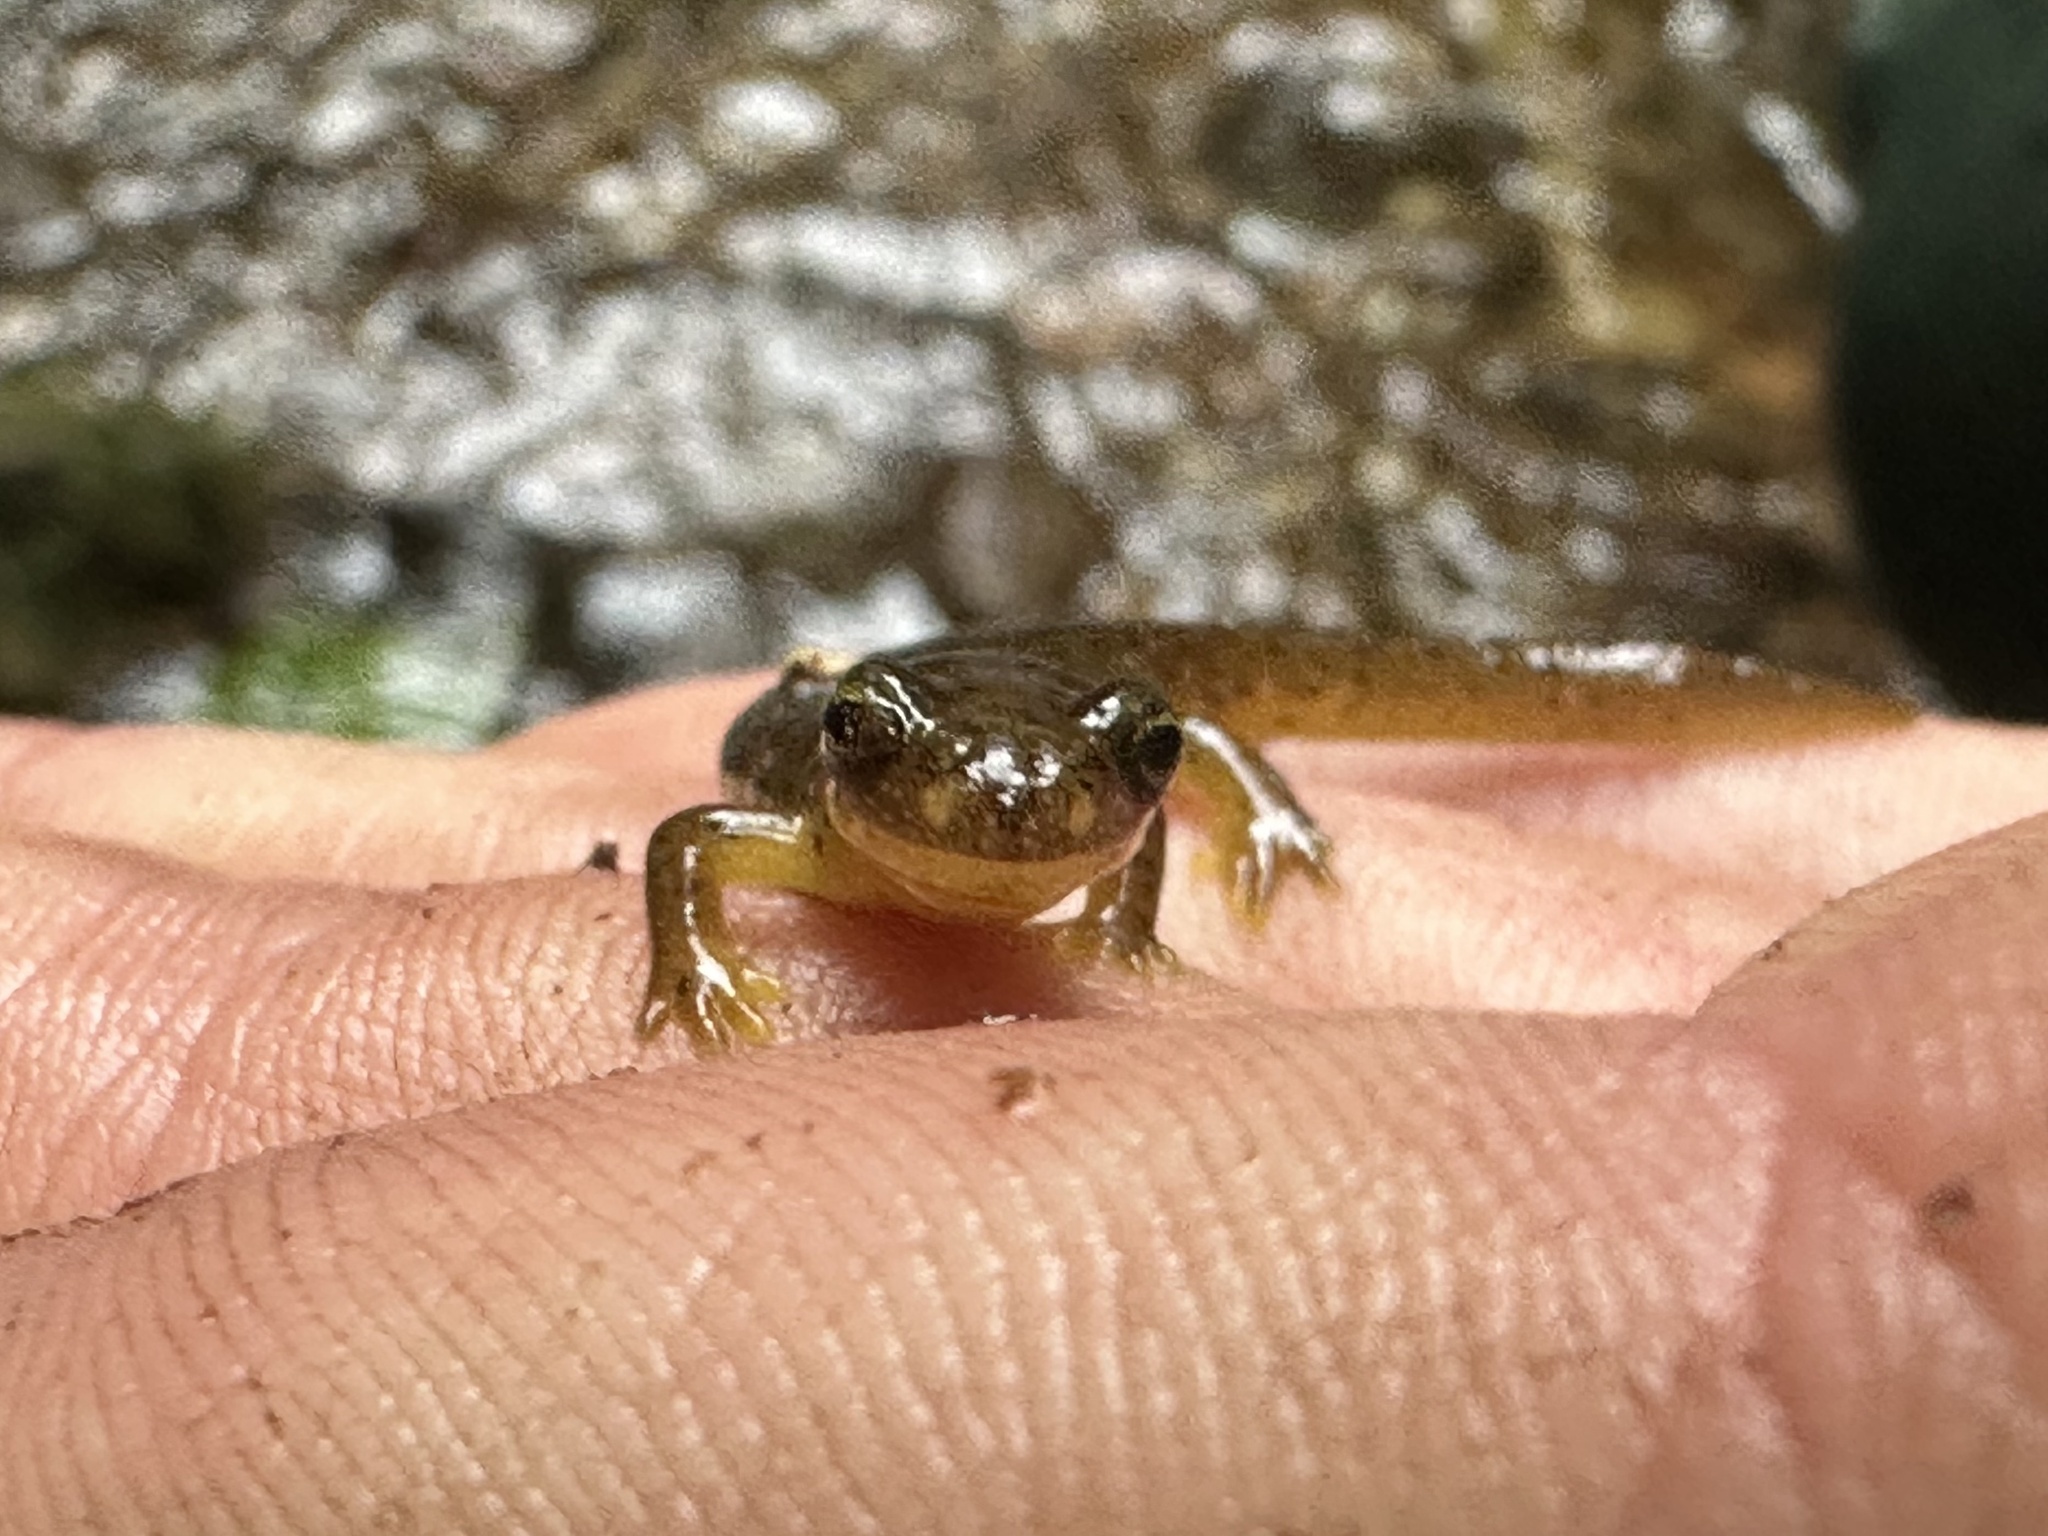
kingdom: Animalia
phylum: Chordata
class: Amphibia
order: Caudata
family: Rhyacotritonidae
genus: Rhyacotriton
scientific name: Rhyacotriton variegatus
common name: Southern torrent salamander
